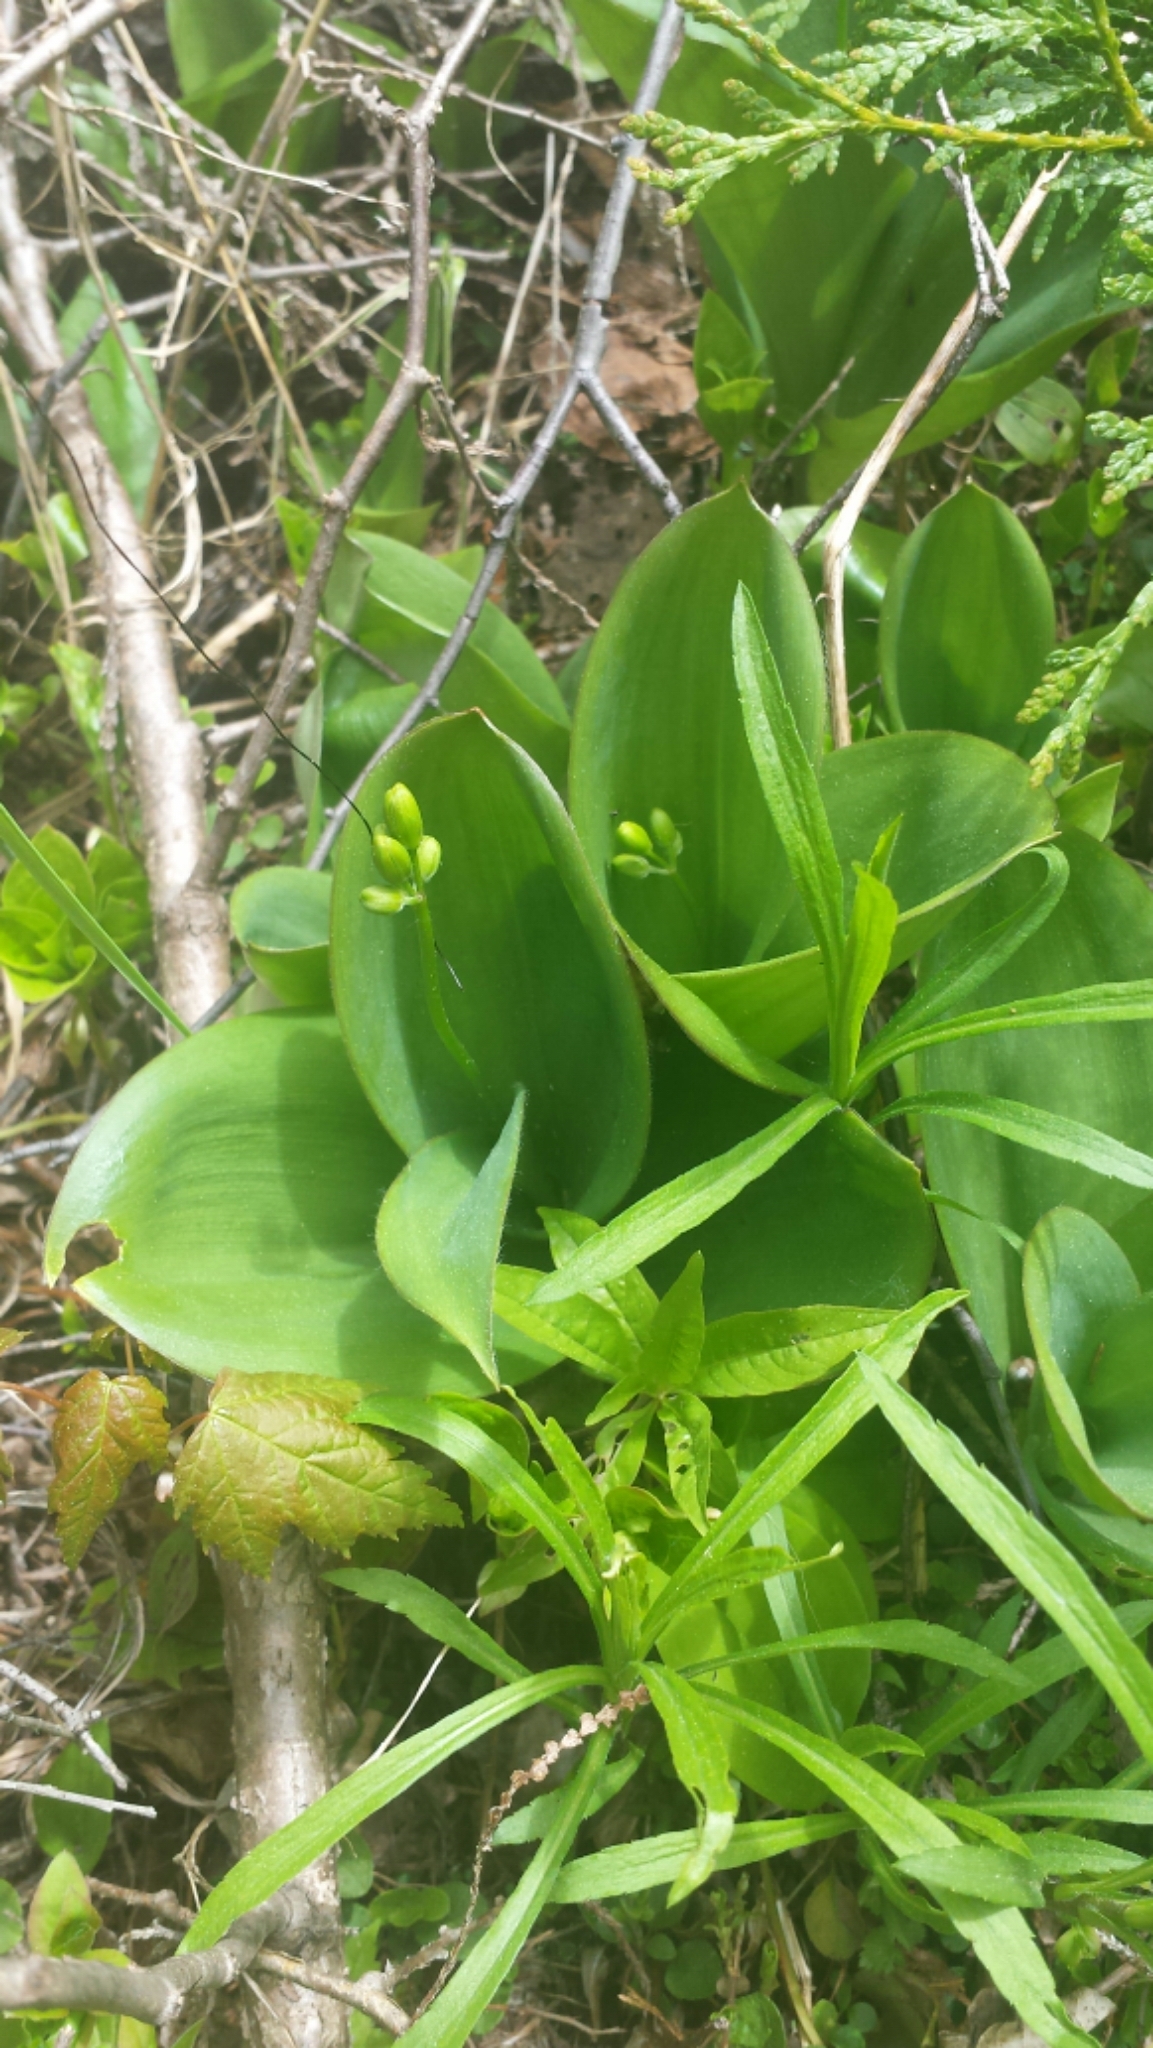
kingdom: Plantae
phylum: Tracheophyta
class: Liliopsida
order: Liliales
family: Liliaceae
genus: Clintonia
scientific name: Clintonia borealis
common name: Yellow clintonia
